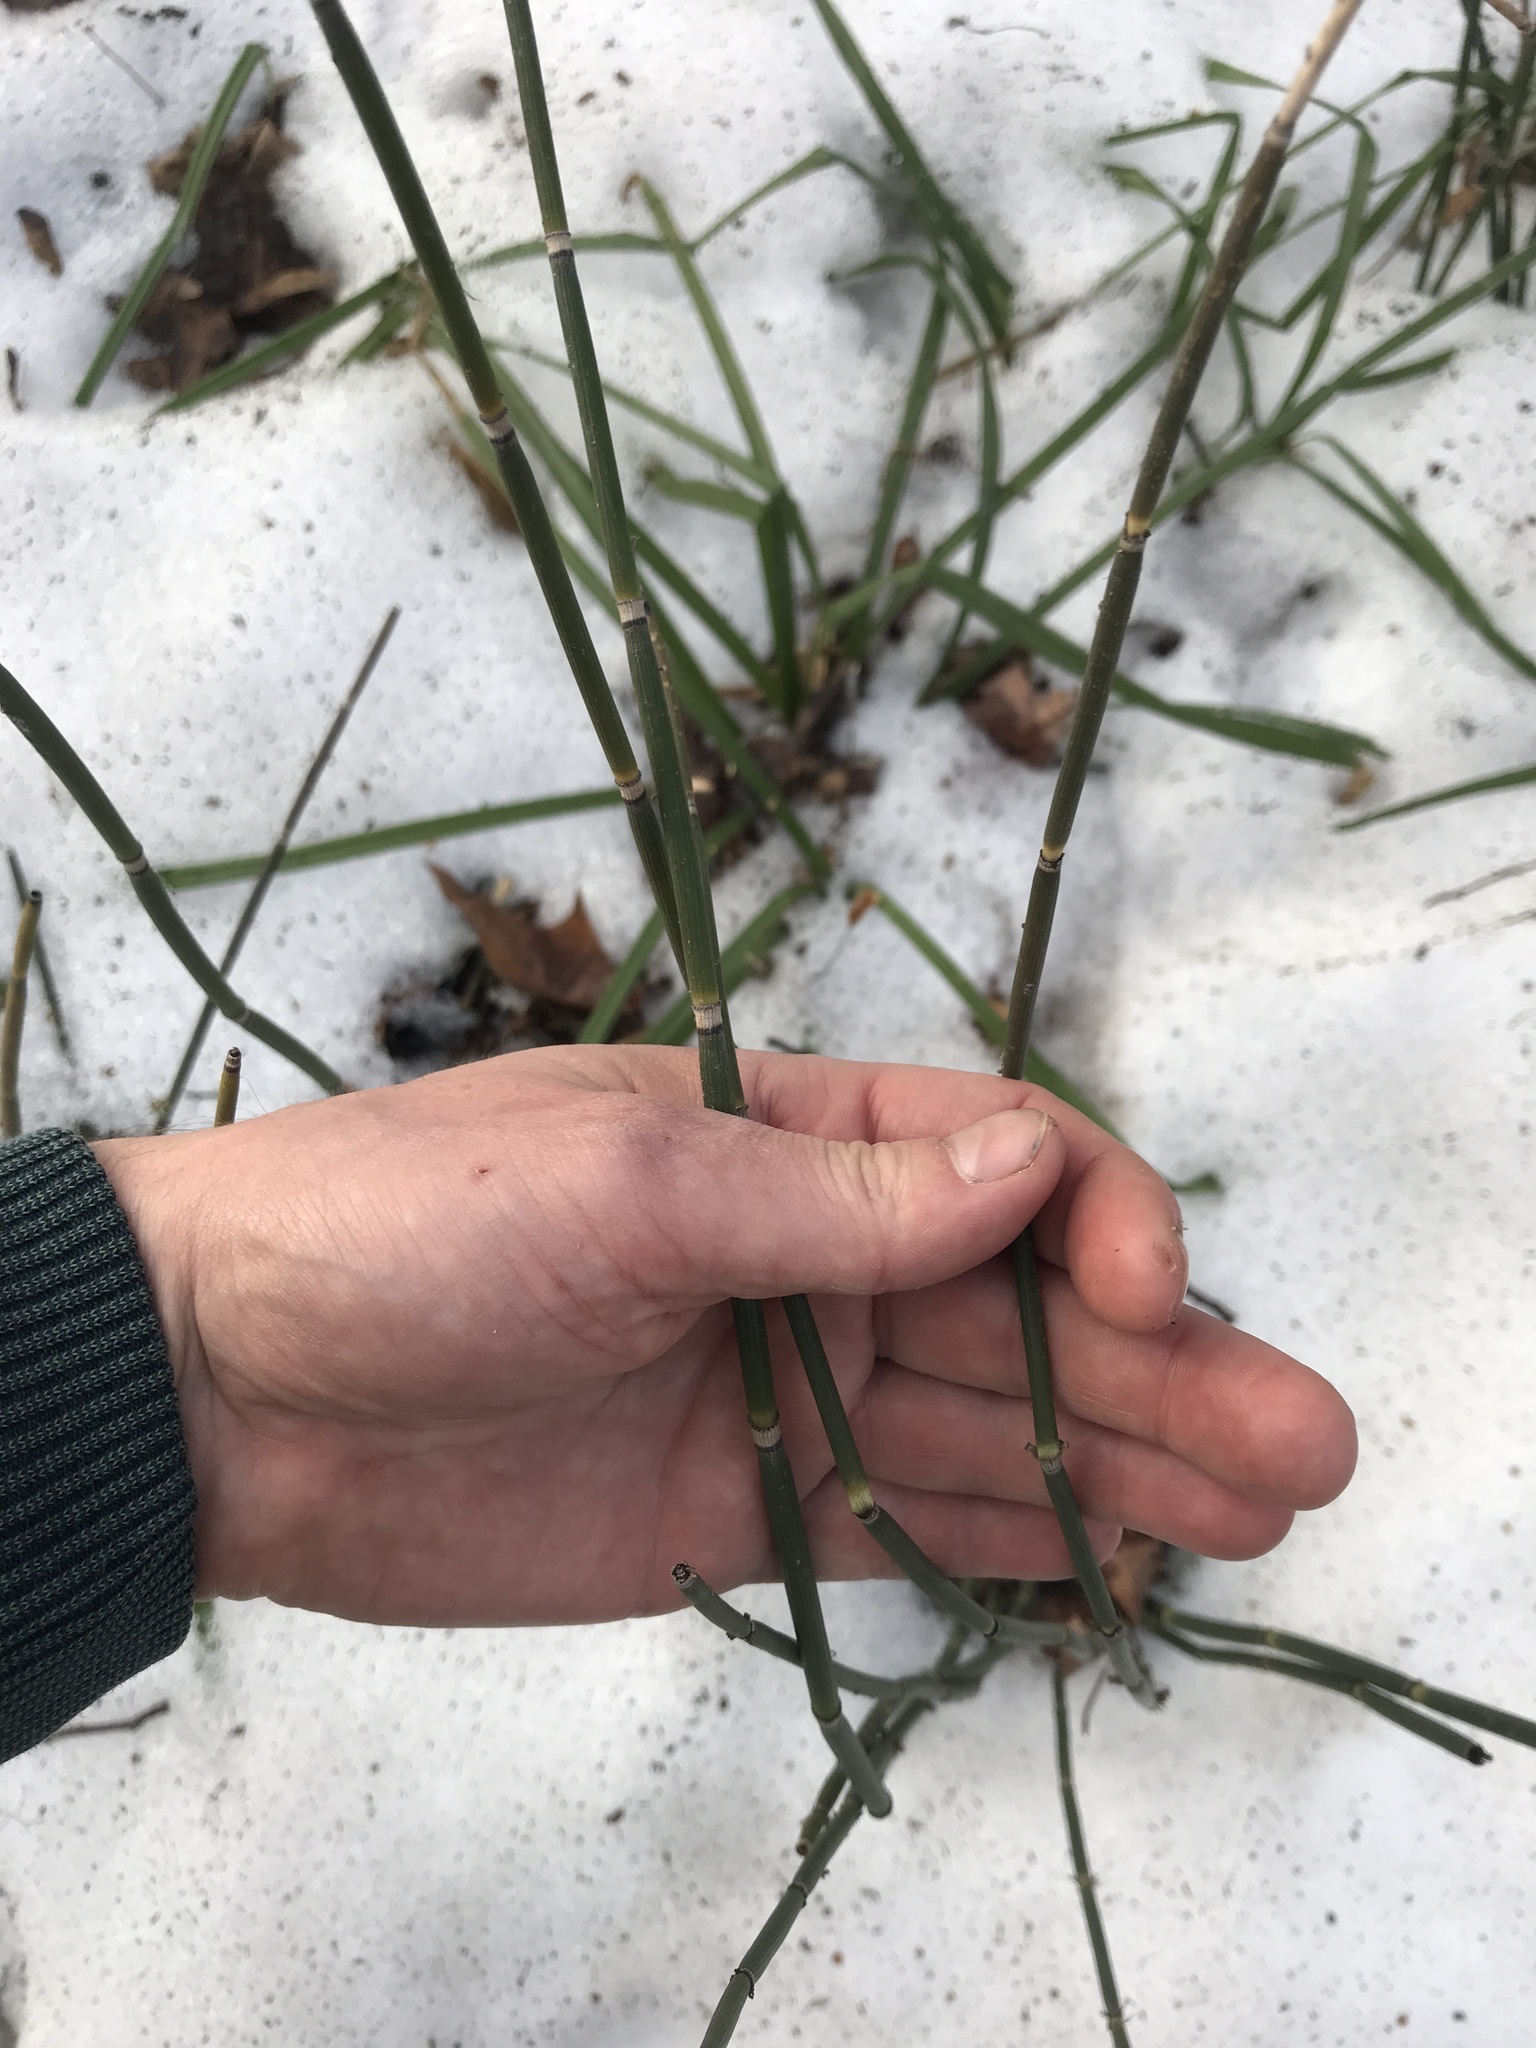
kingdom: Plantae
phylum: Tracheophyta
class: Polypodiopsida
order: Equisetales
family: Equisetaceae
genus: Equisetum
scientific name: Equisetum hyemale
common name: Rough horsetail
